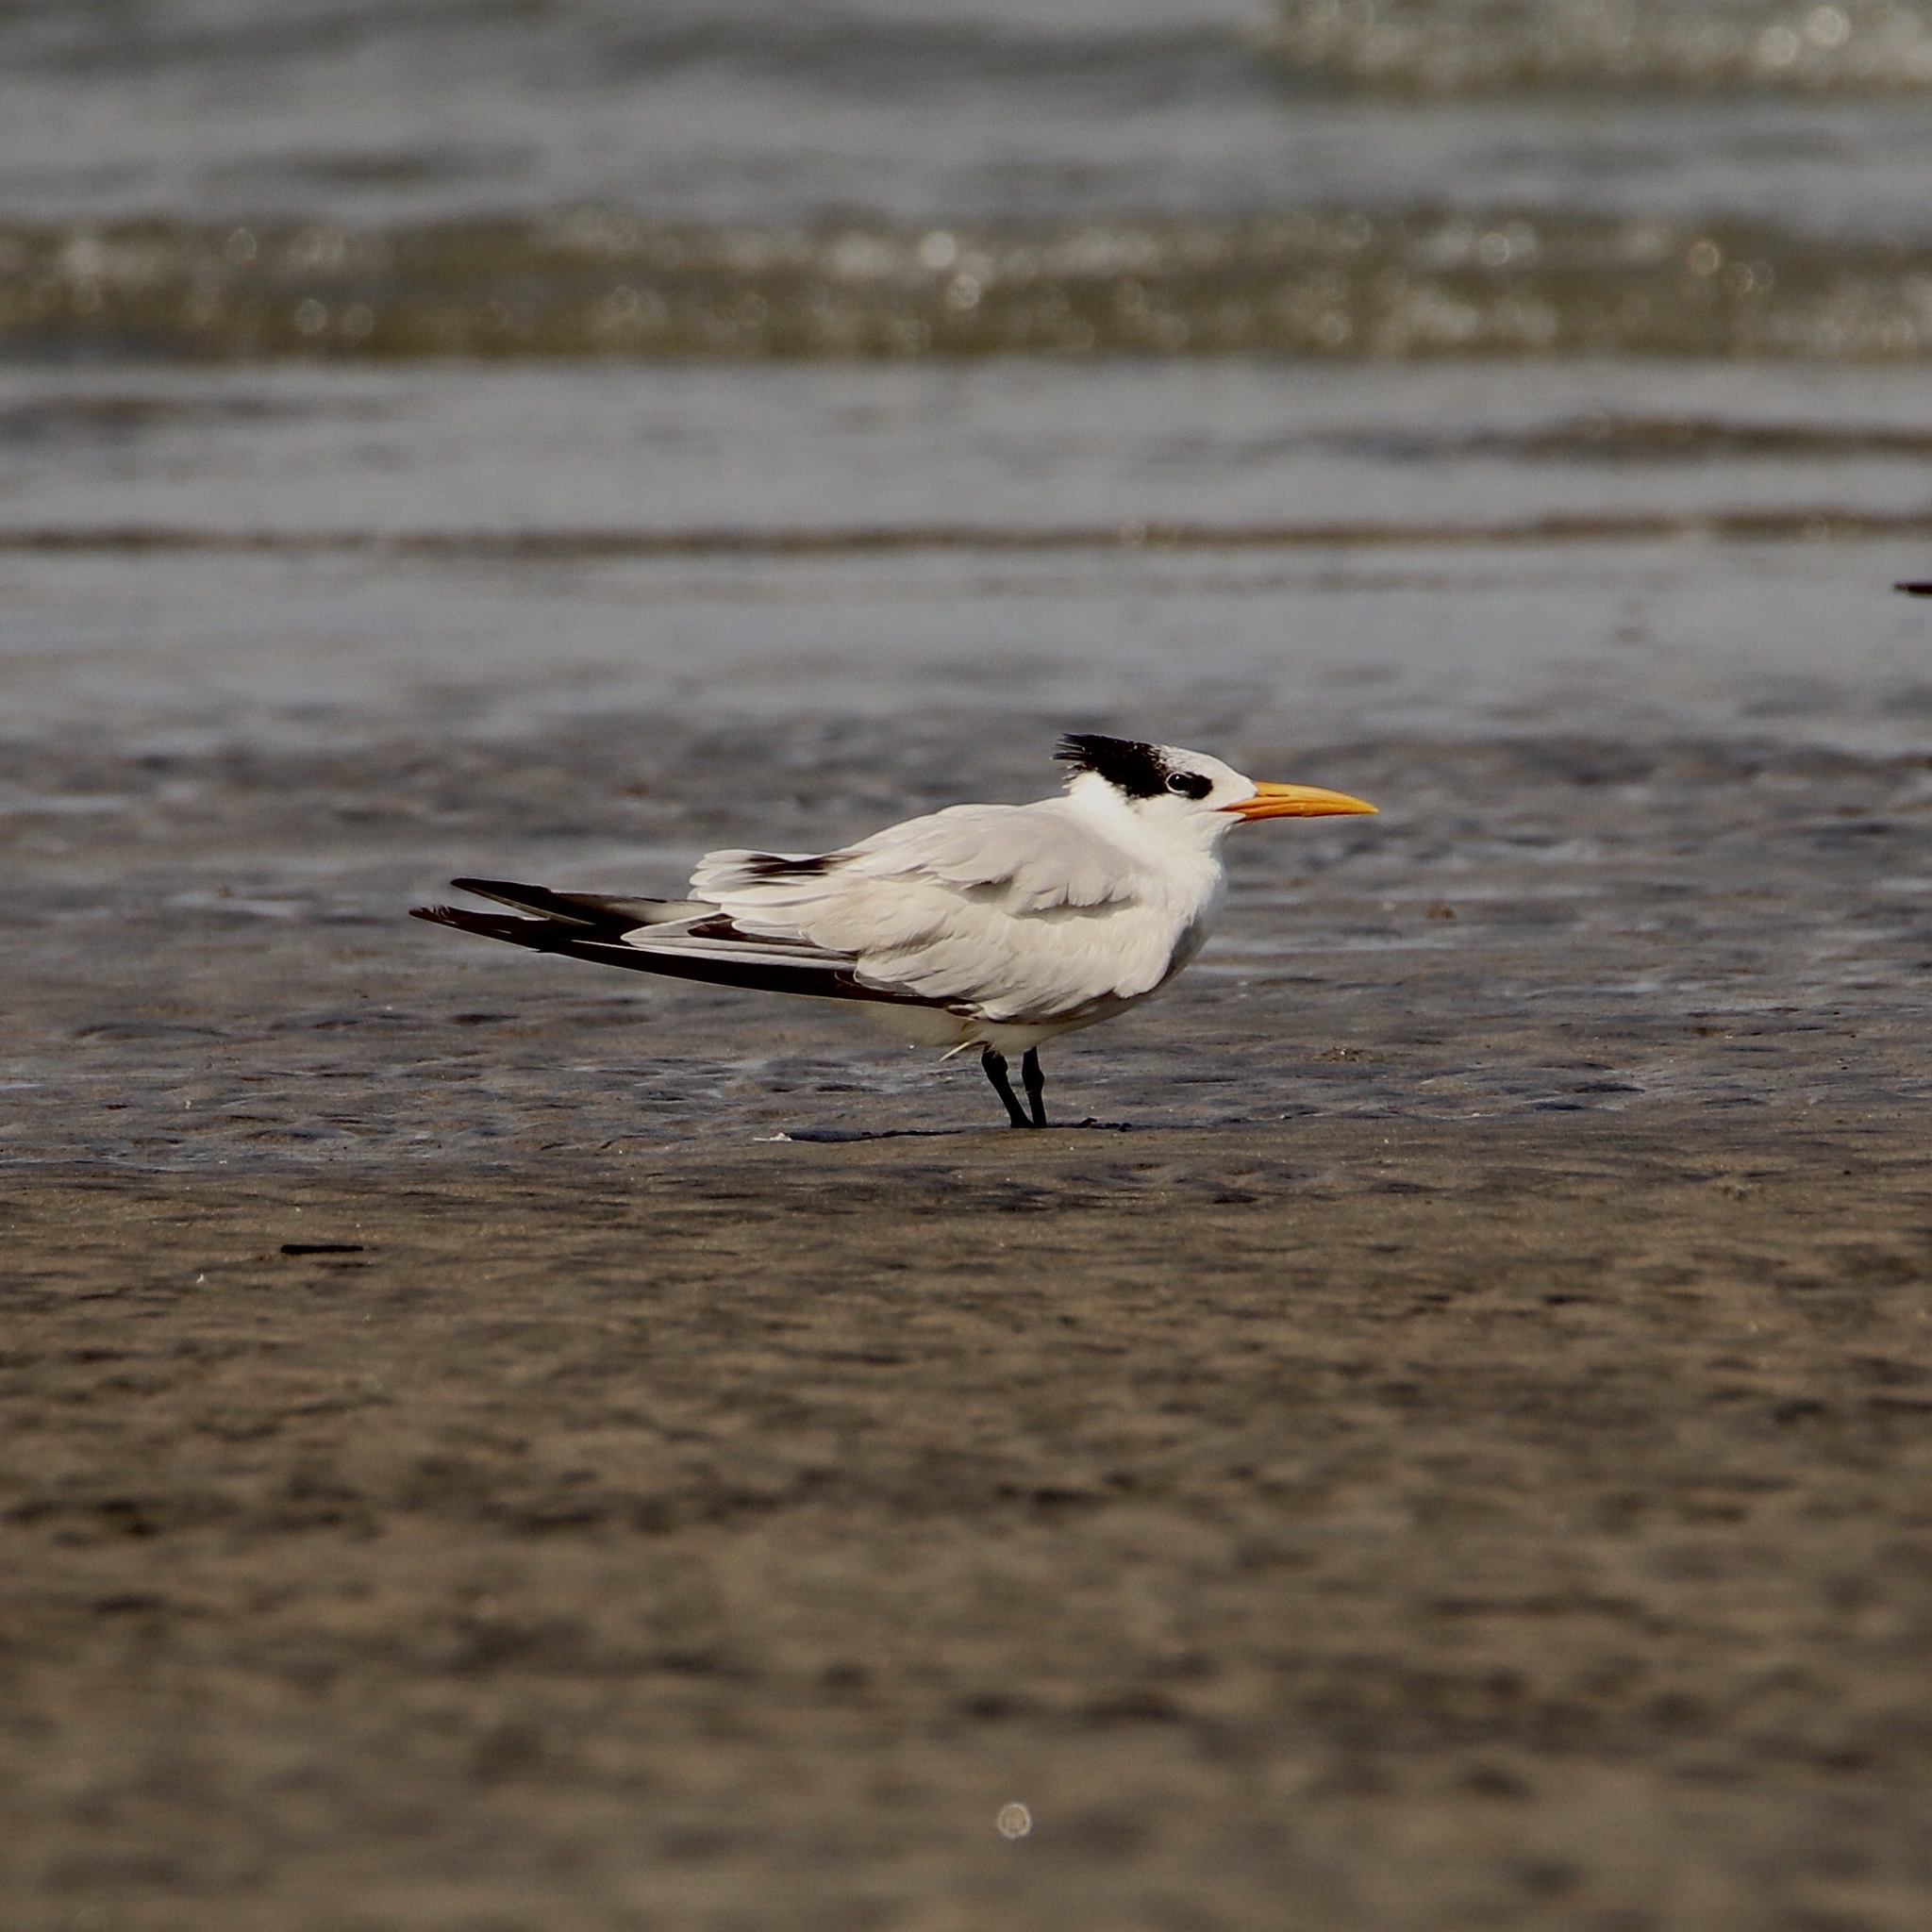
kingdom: Animalia
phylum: Chordata
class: Aves
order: Charadriiformes
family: Laridae
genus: Thalasseus
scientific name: Thalasseus maximus
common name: Royal tern
